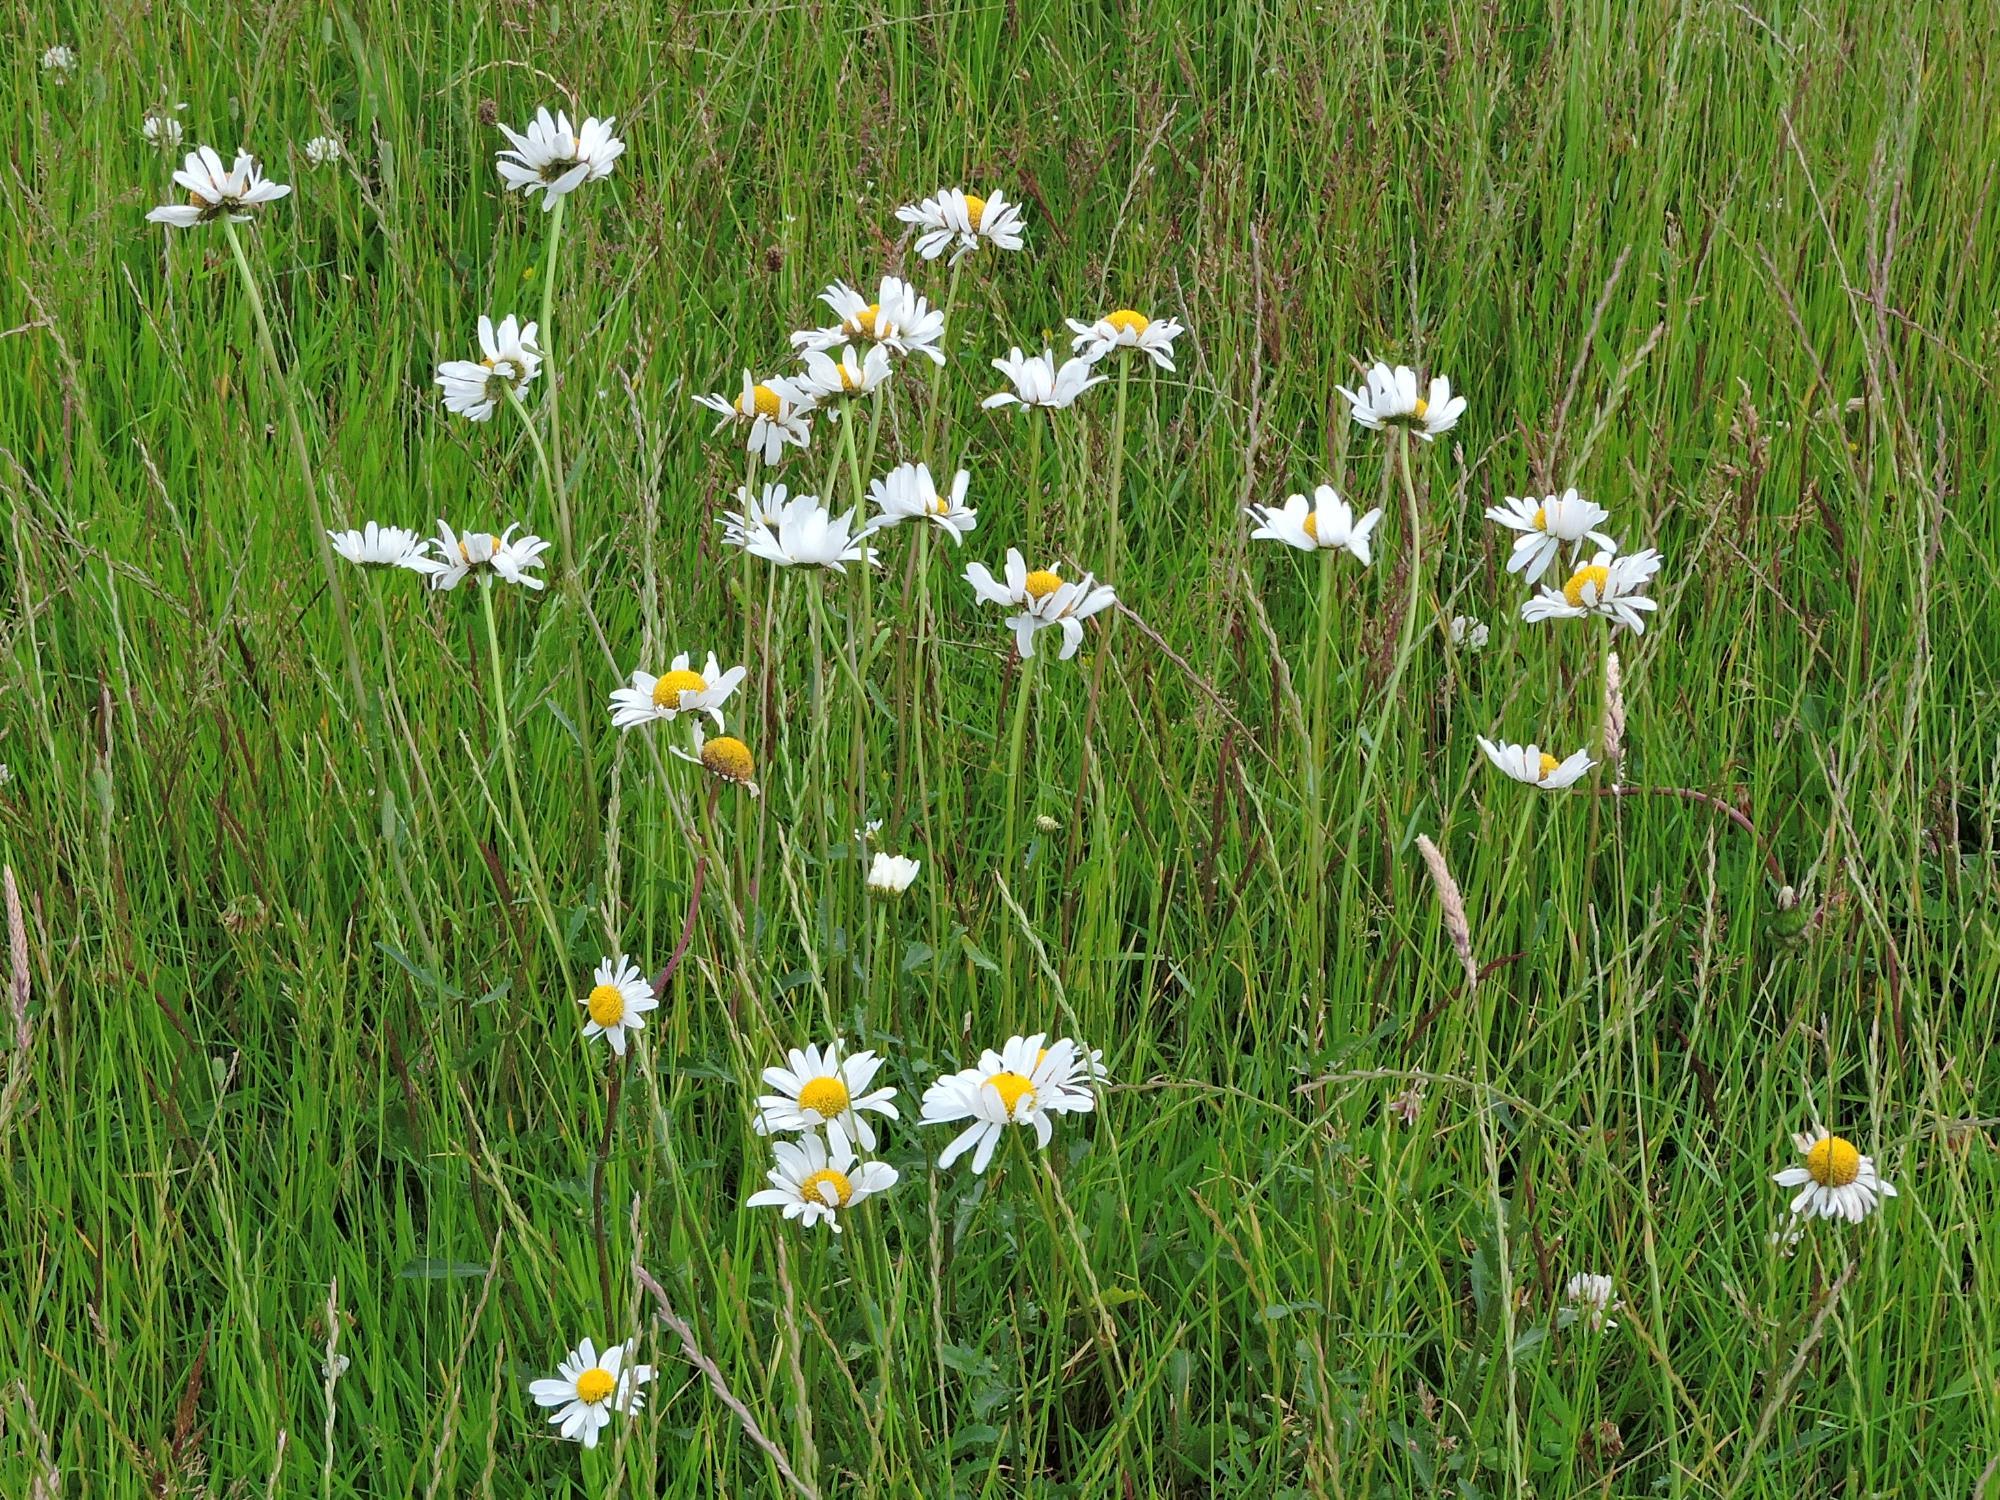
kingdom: Plantae
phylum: Tracheophyta
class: Magnoliopsida
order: Asterales
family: Asteraceae
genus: Leucanthemum
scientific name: Leucanthemum vulgare
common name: Oxeye daisy
